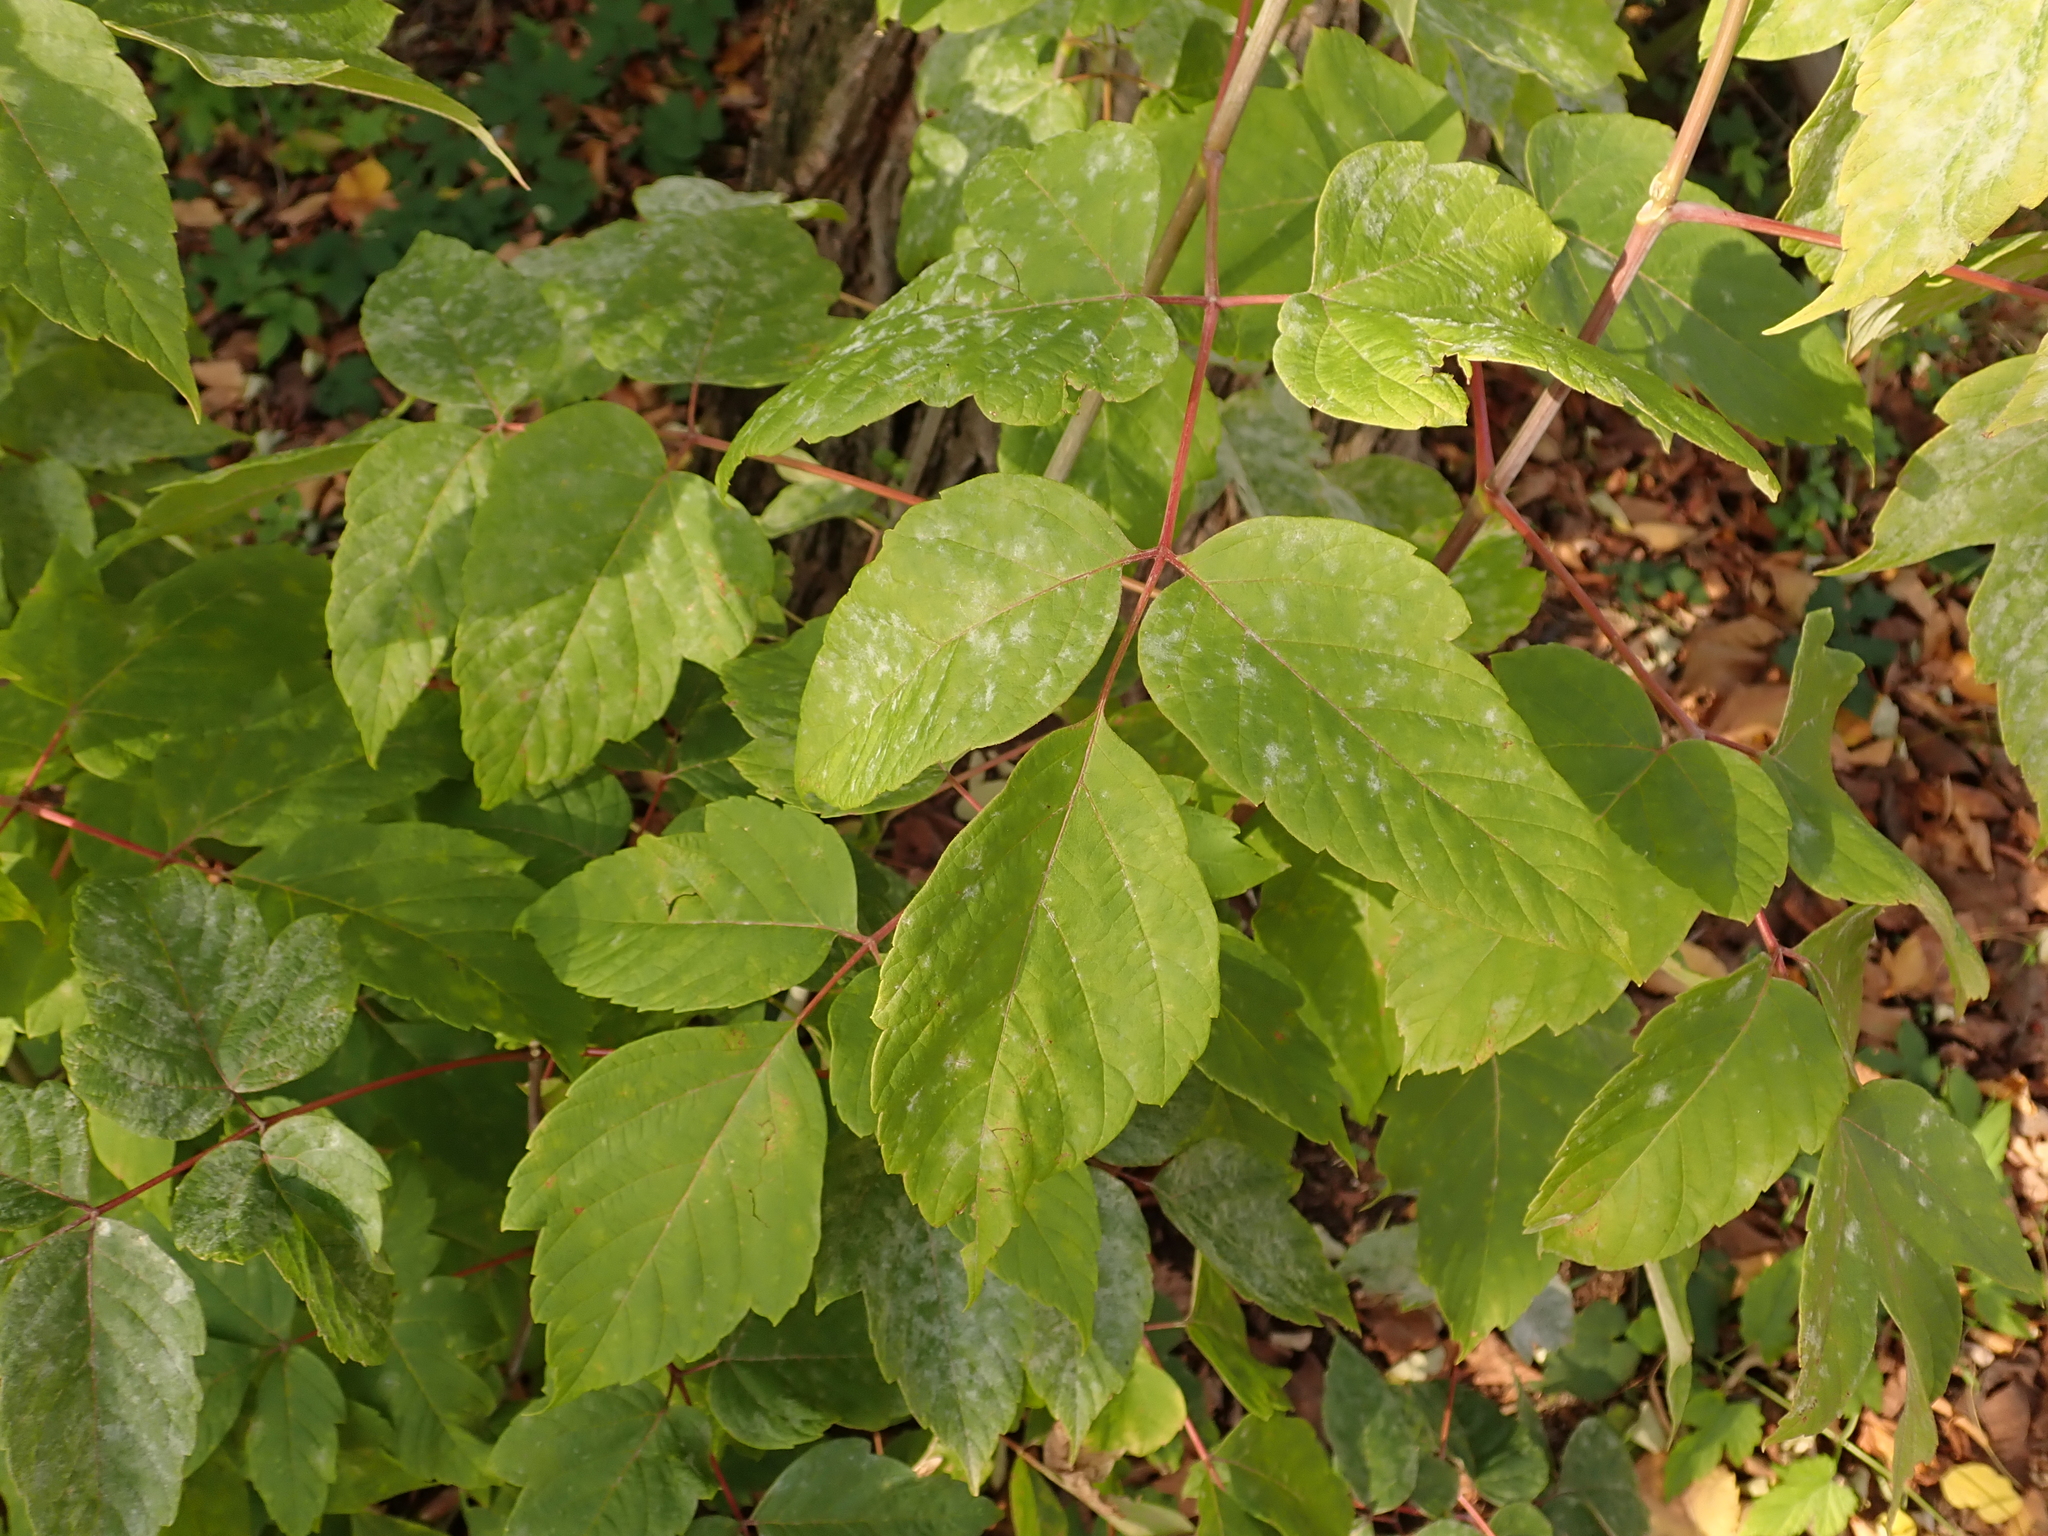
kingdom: Plantae
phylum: Tracheophyta
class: Magnoliopsida
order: Sapindales
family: Sapindaceae
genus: Acer
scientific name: Acer negundo
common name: Ashleaf maple
